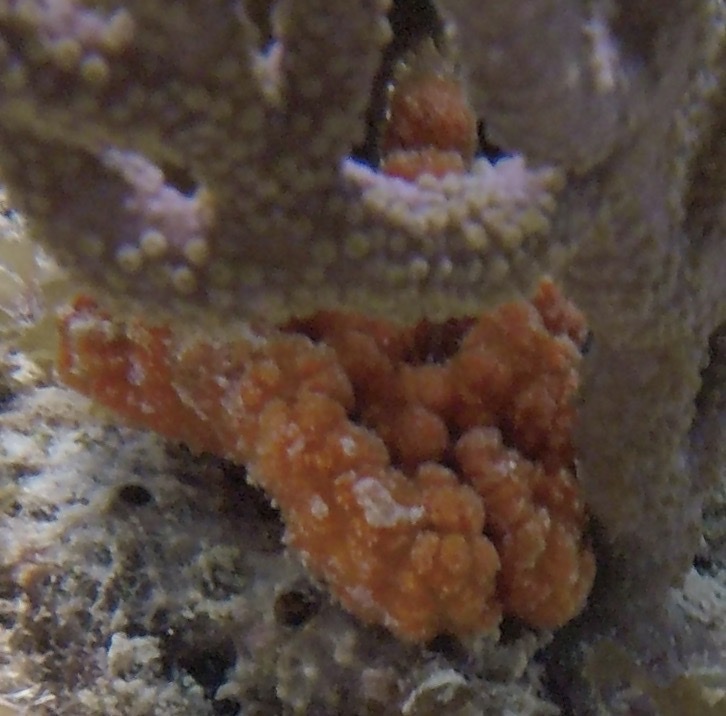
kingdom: Animalia
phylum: Porifera
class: Demospongiae
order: Axinellida
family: Axinellidae
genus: Ptilocaulis
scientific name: Ptilocaulis walpersii
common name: Red tree sponge
